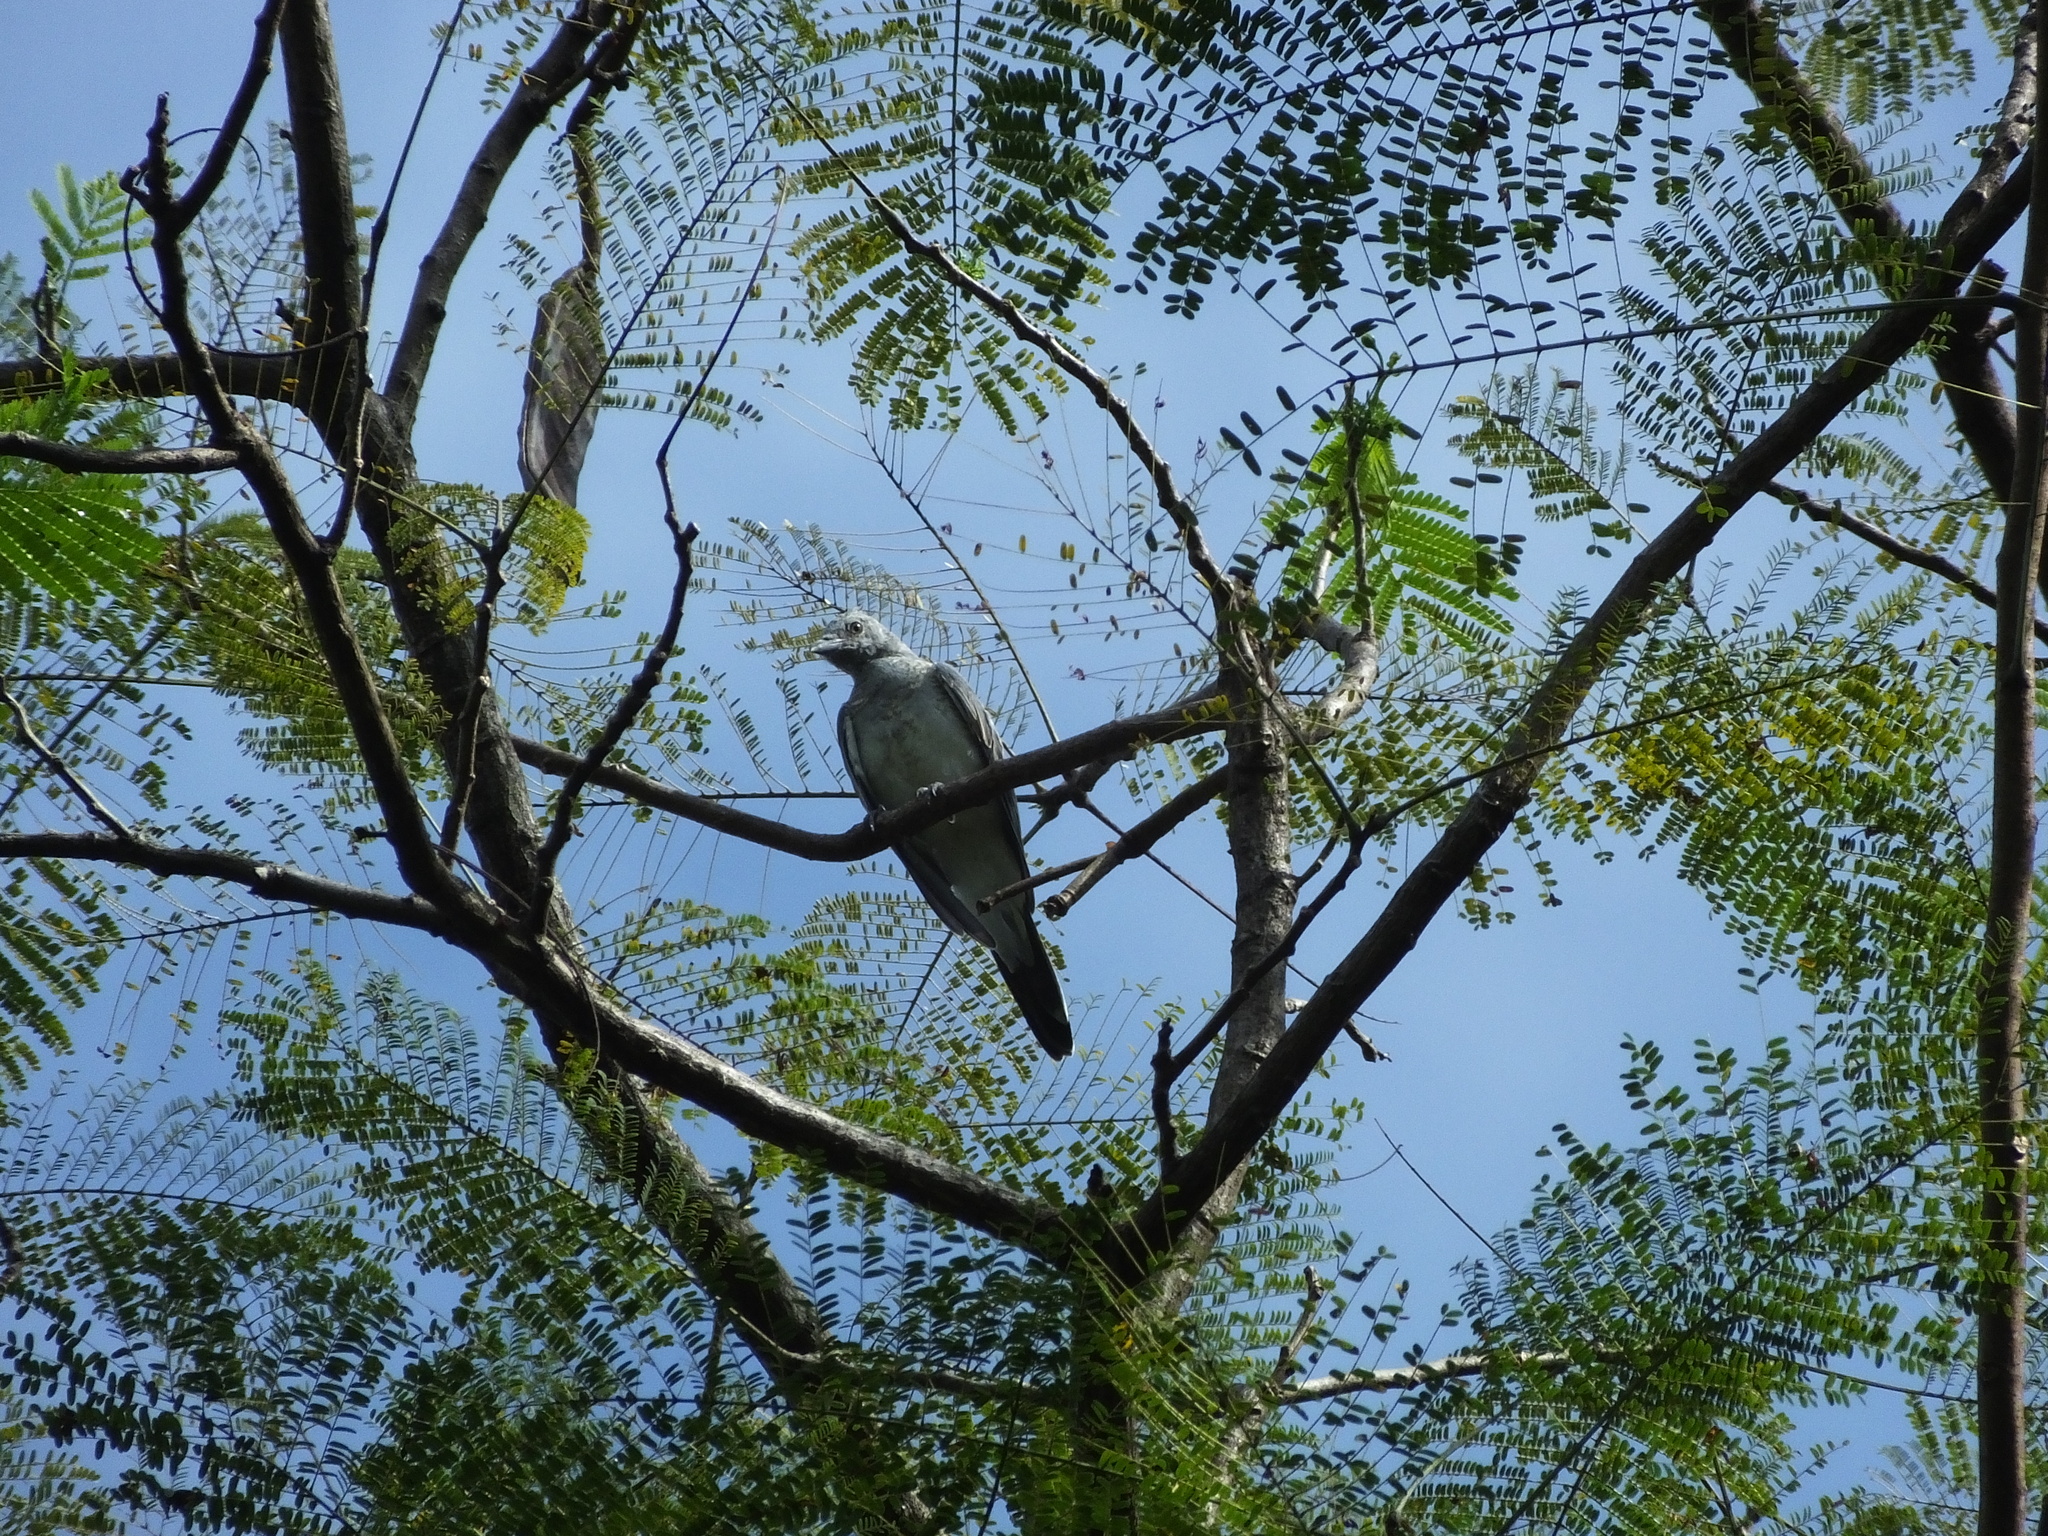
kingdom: Animalia
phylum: Chordata
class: Aves
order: Passeriformes
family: Campephagidae
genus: Coracina
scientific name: Coracina leucopygia
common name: White-rumped cuckooshrike
